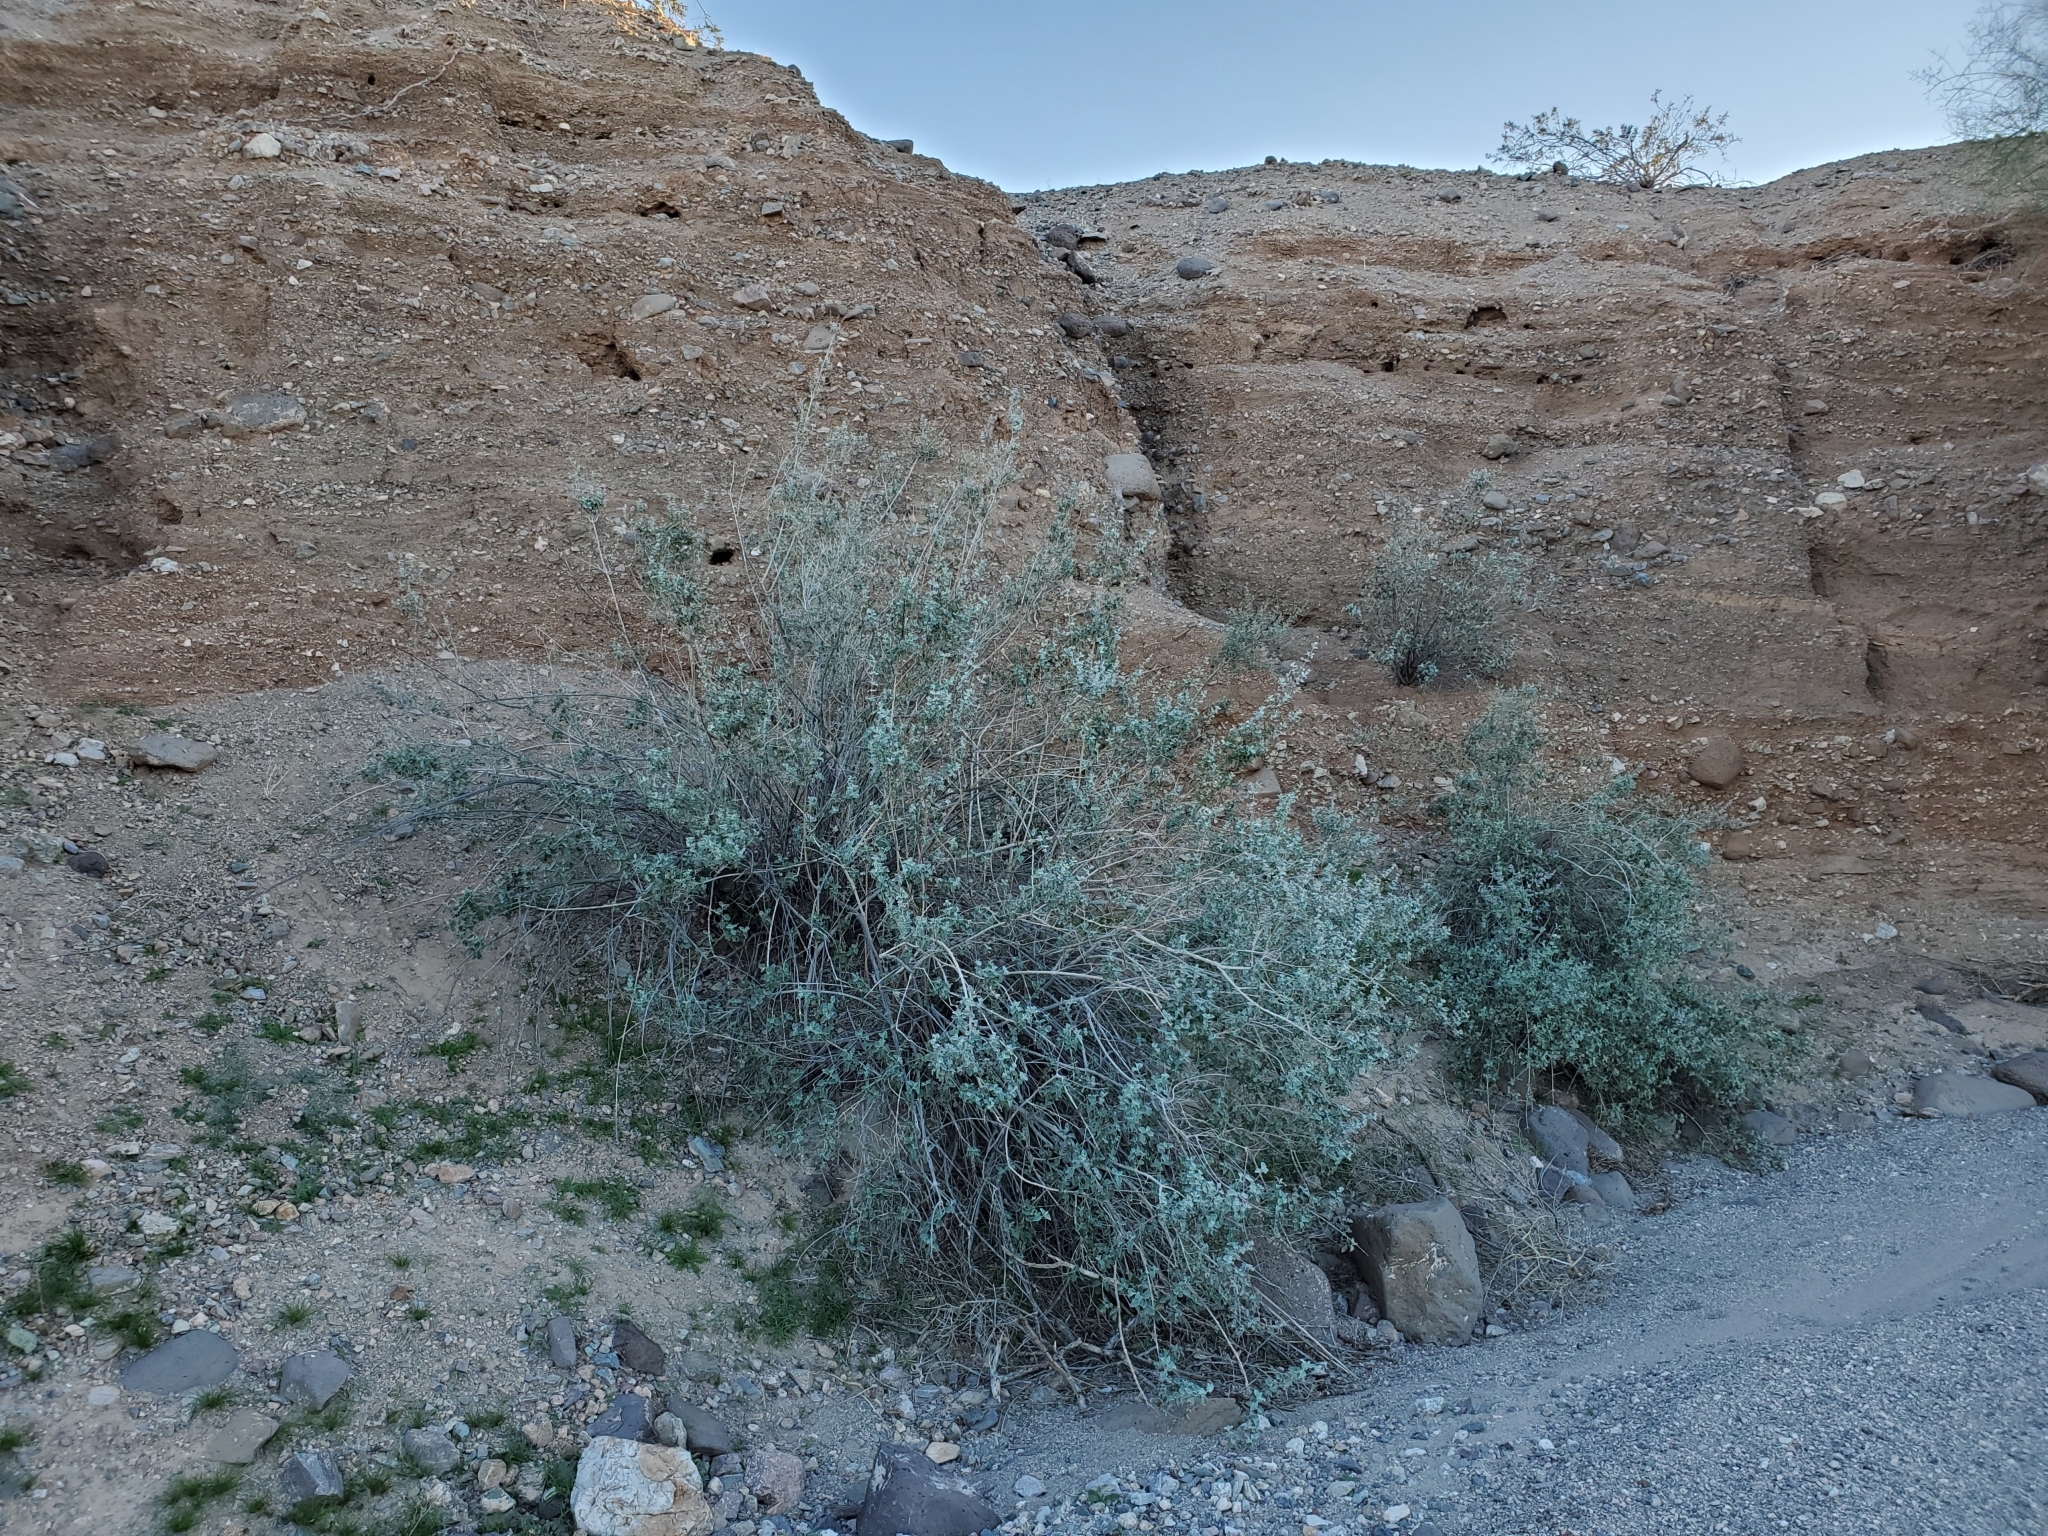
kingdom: Plantae
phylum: Tracheophyta
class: Magnoliopsida
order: Lamiales
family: Lamiaceae
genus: Condea
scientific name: Condea emoryi
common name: Chia
